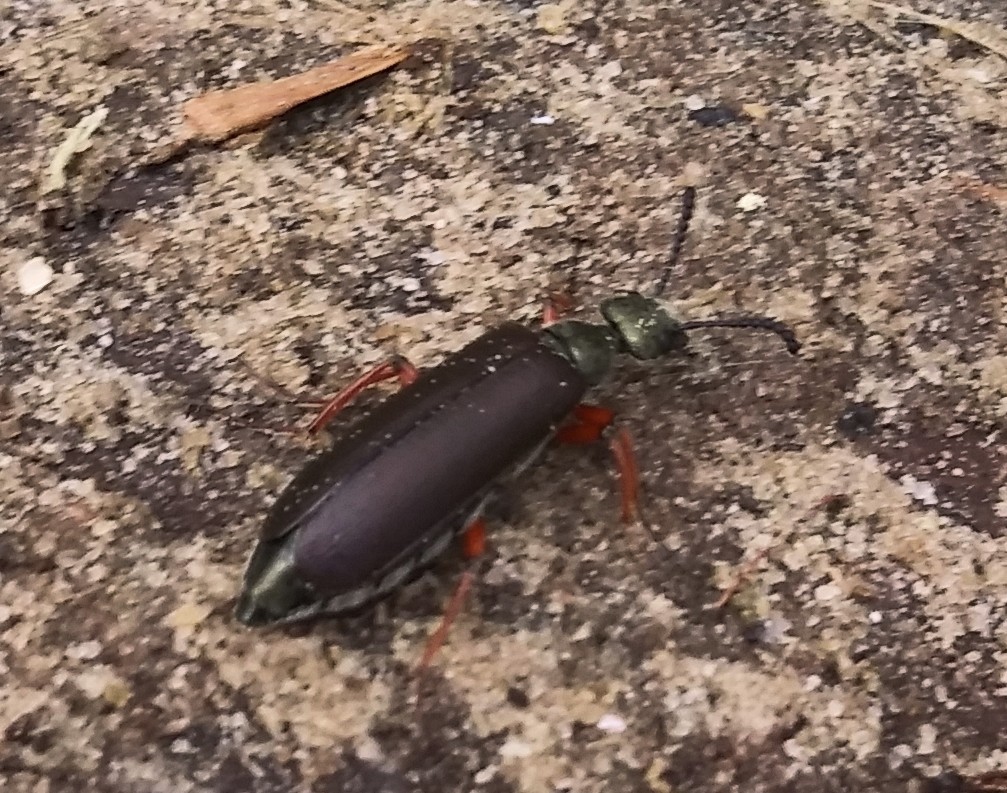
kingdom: Animalia
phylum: Arthropoda
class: Insecta
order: Coleoptera
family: Meloidae
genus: Lytta
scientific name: Lytta aenea
